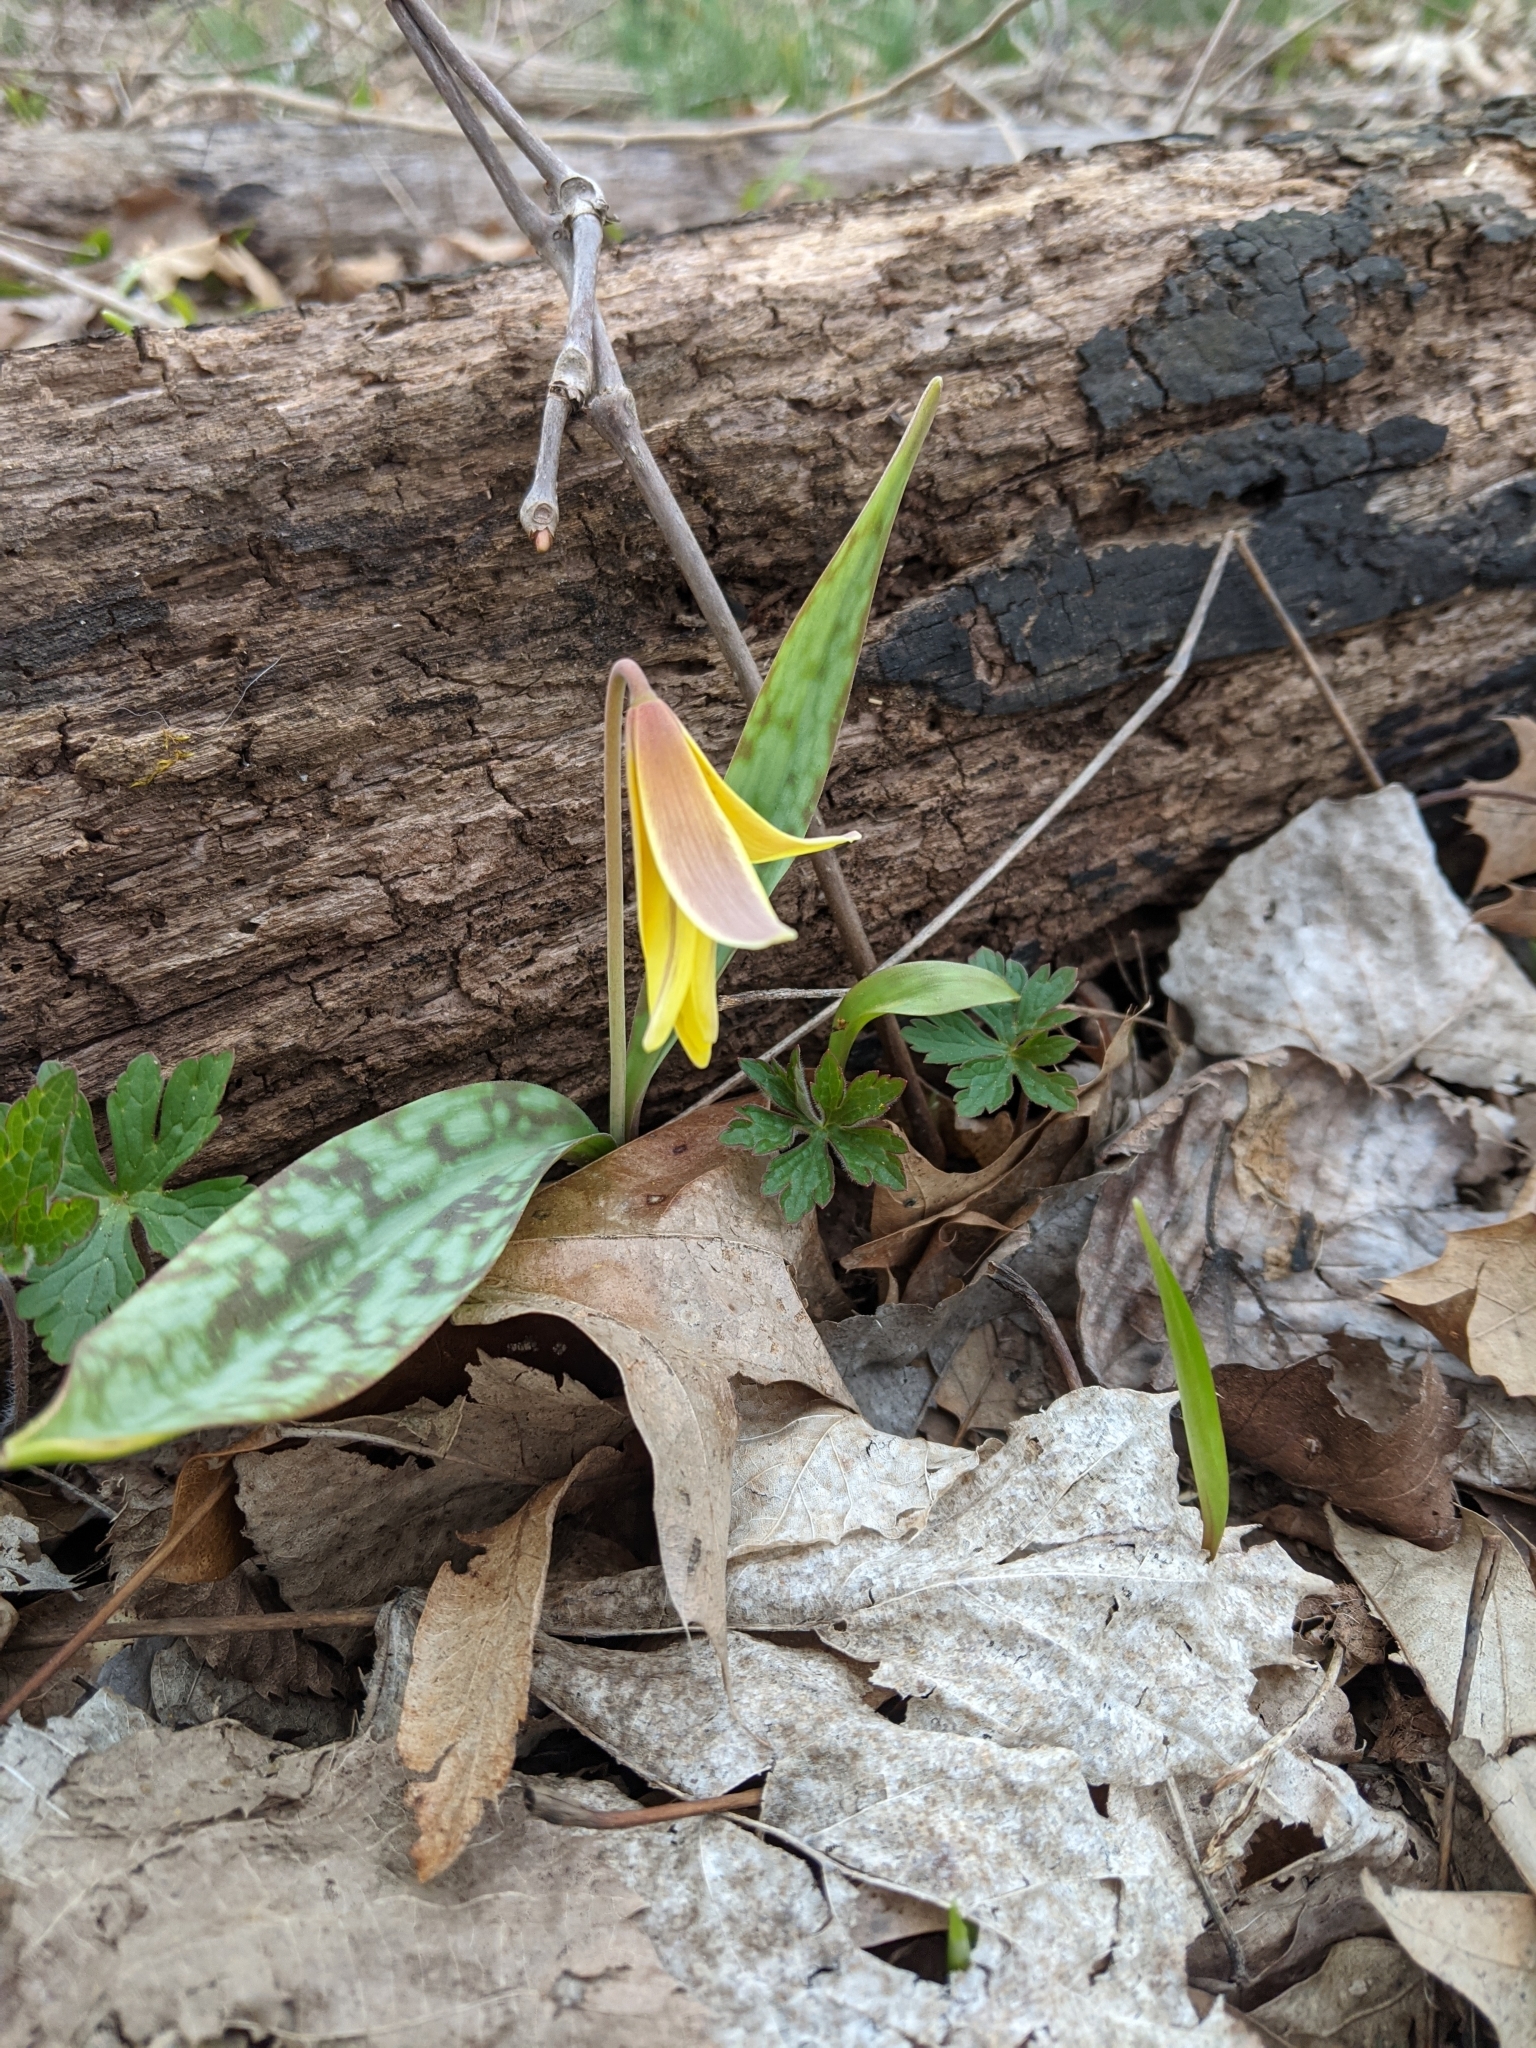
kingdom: Plantae
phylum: Tracheophyta
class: Liliopsida
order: Liliales
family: Liliaceae
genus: Erythronium
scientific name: Erythronium americanum
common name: Yellow adder's-tongue
